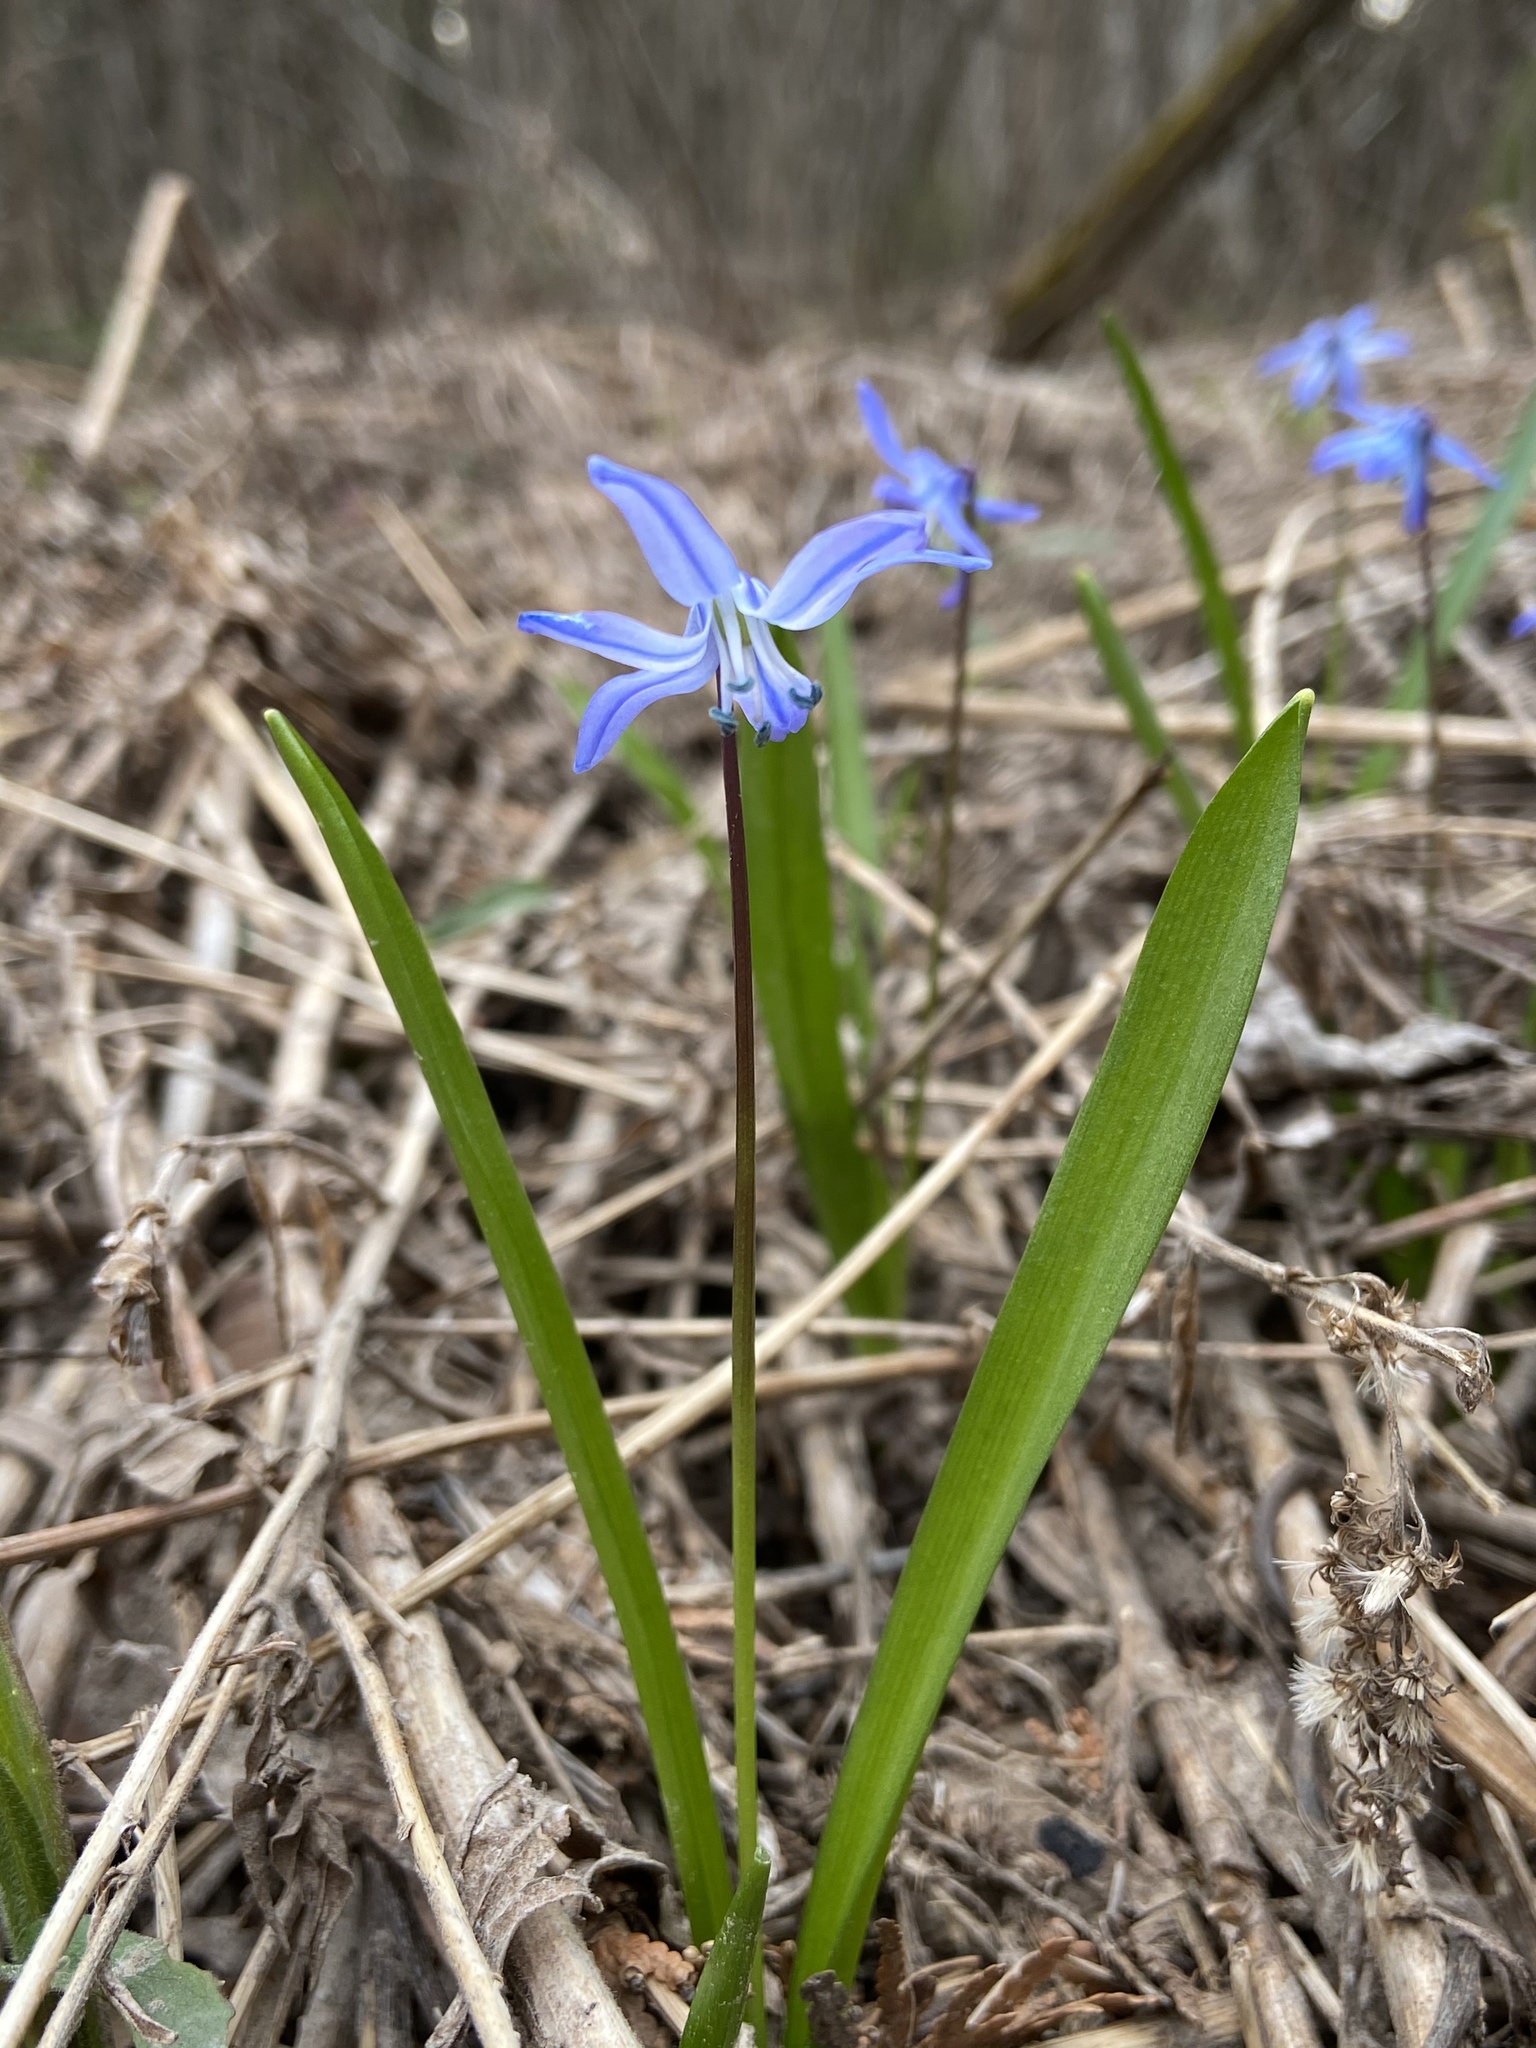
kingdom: Plantae
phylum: Tracheophyta
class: Liliopsida
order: Asparagales
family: Asparagaceae
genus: Scilla
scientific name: Scilla siberica
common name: Siberian squill
